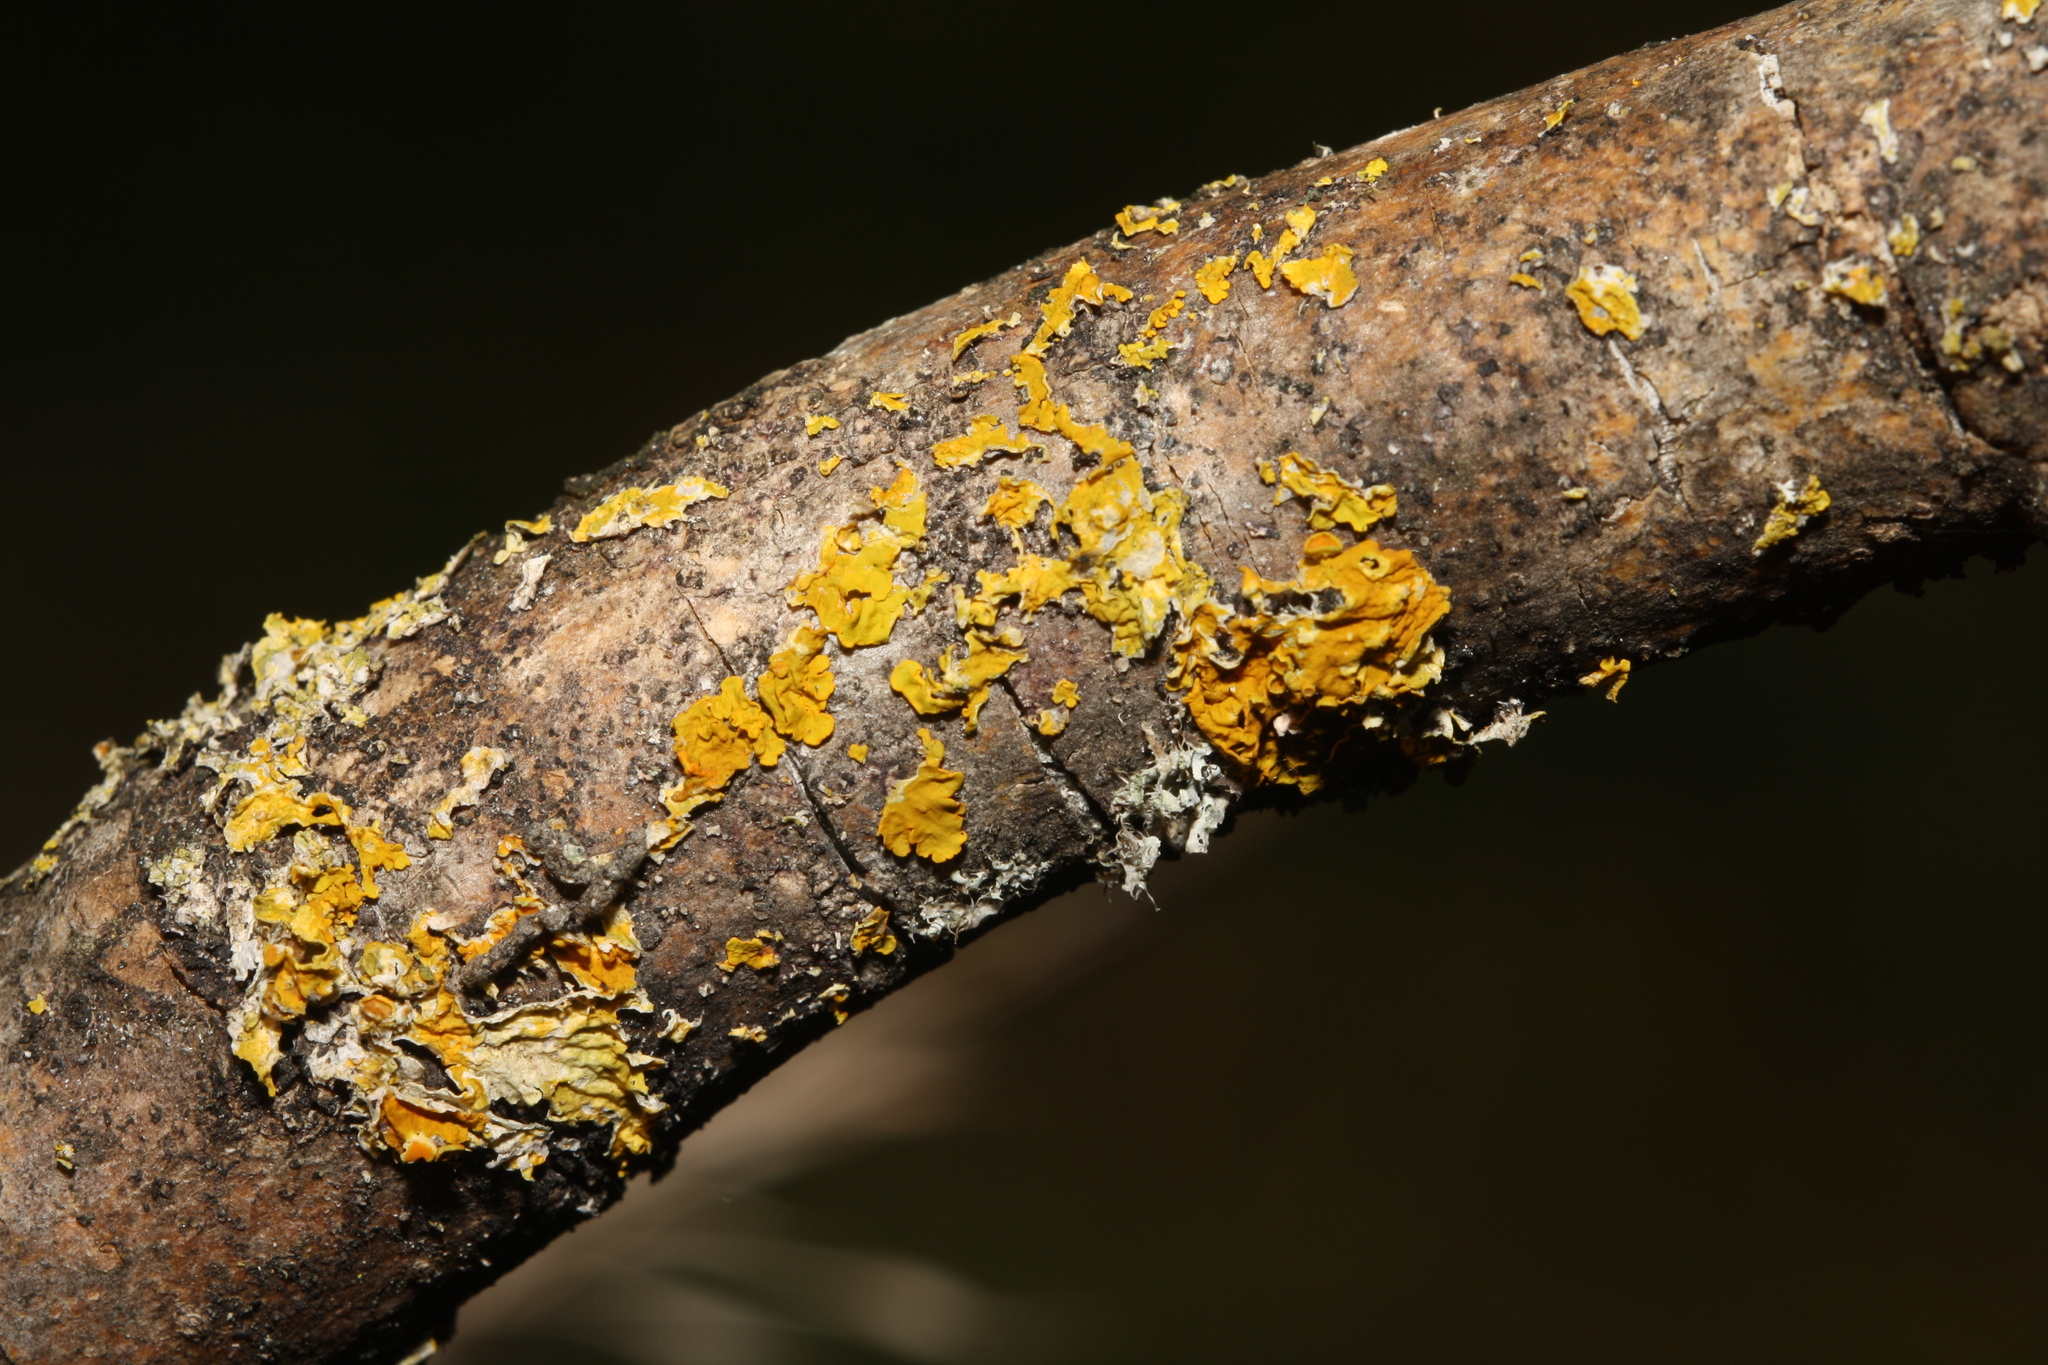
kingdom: Fungi
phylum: Ascomycota
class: Lecanoromycetes
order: Teloschistales
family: Teloschistaceae
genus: Xanthoria
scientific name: Xanthoria parietina
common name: Common orange lichen
